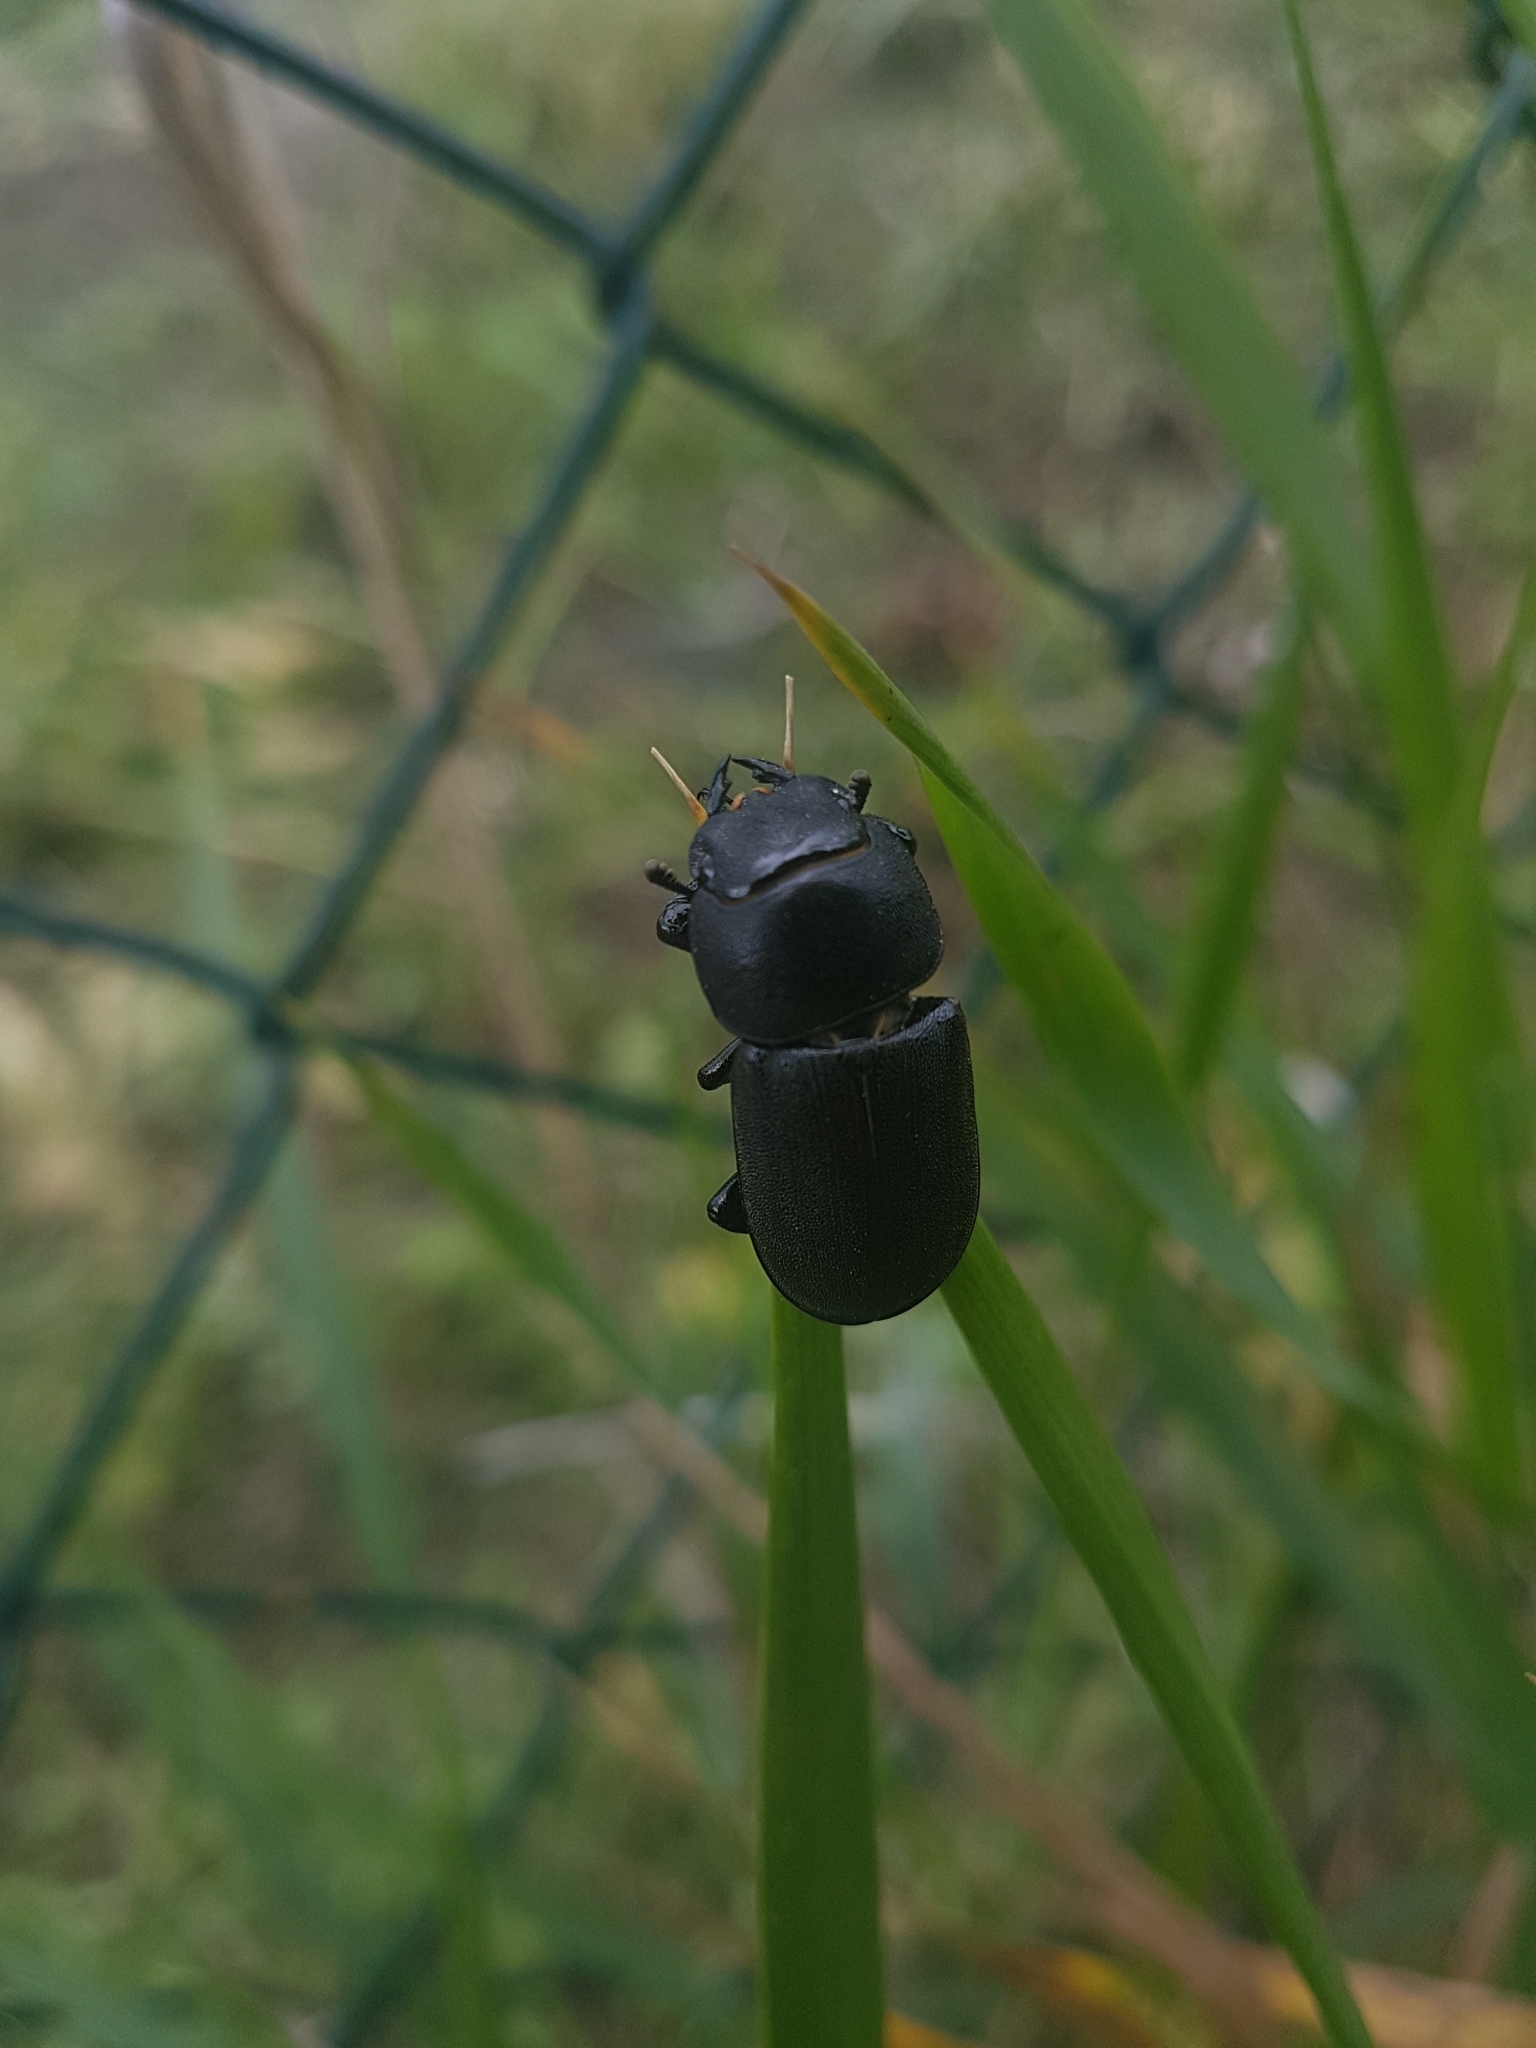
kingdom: Animalia
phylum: Arthropoda
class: Insecta
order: Coleoptera
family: Lucanidae
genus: Dorcus
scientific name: Dorcus parallelipipedus
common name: Lesser stag beetle
